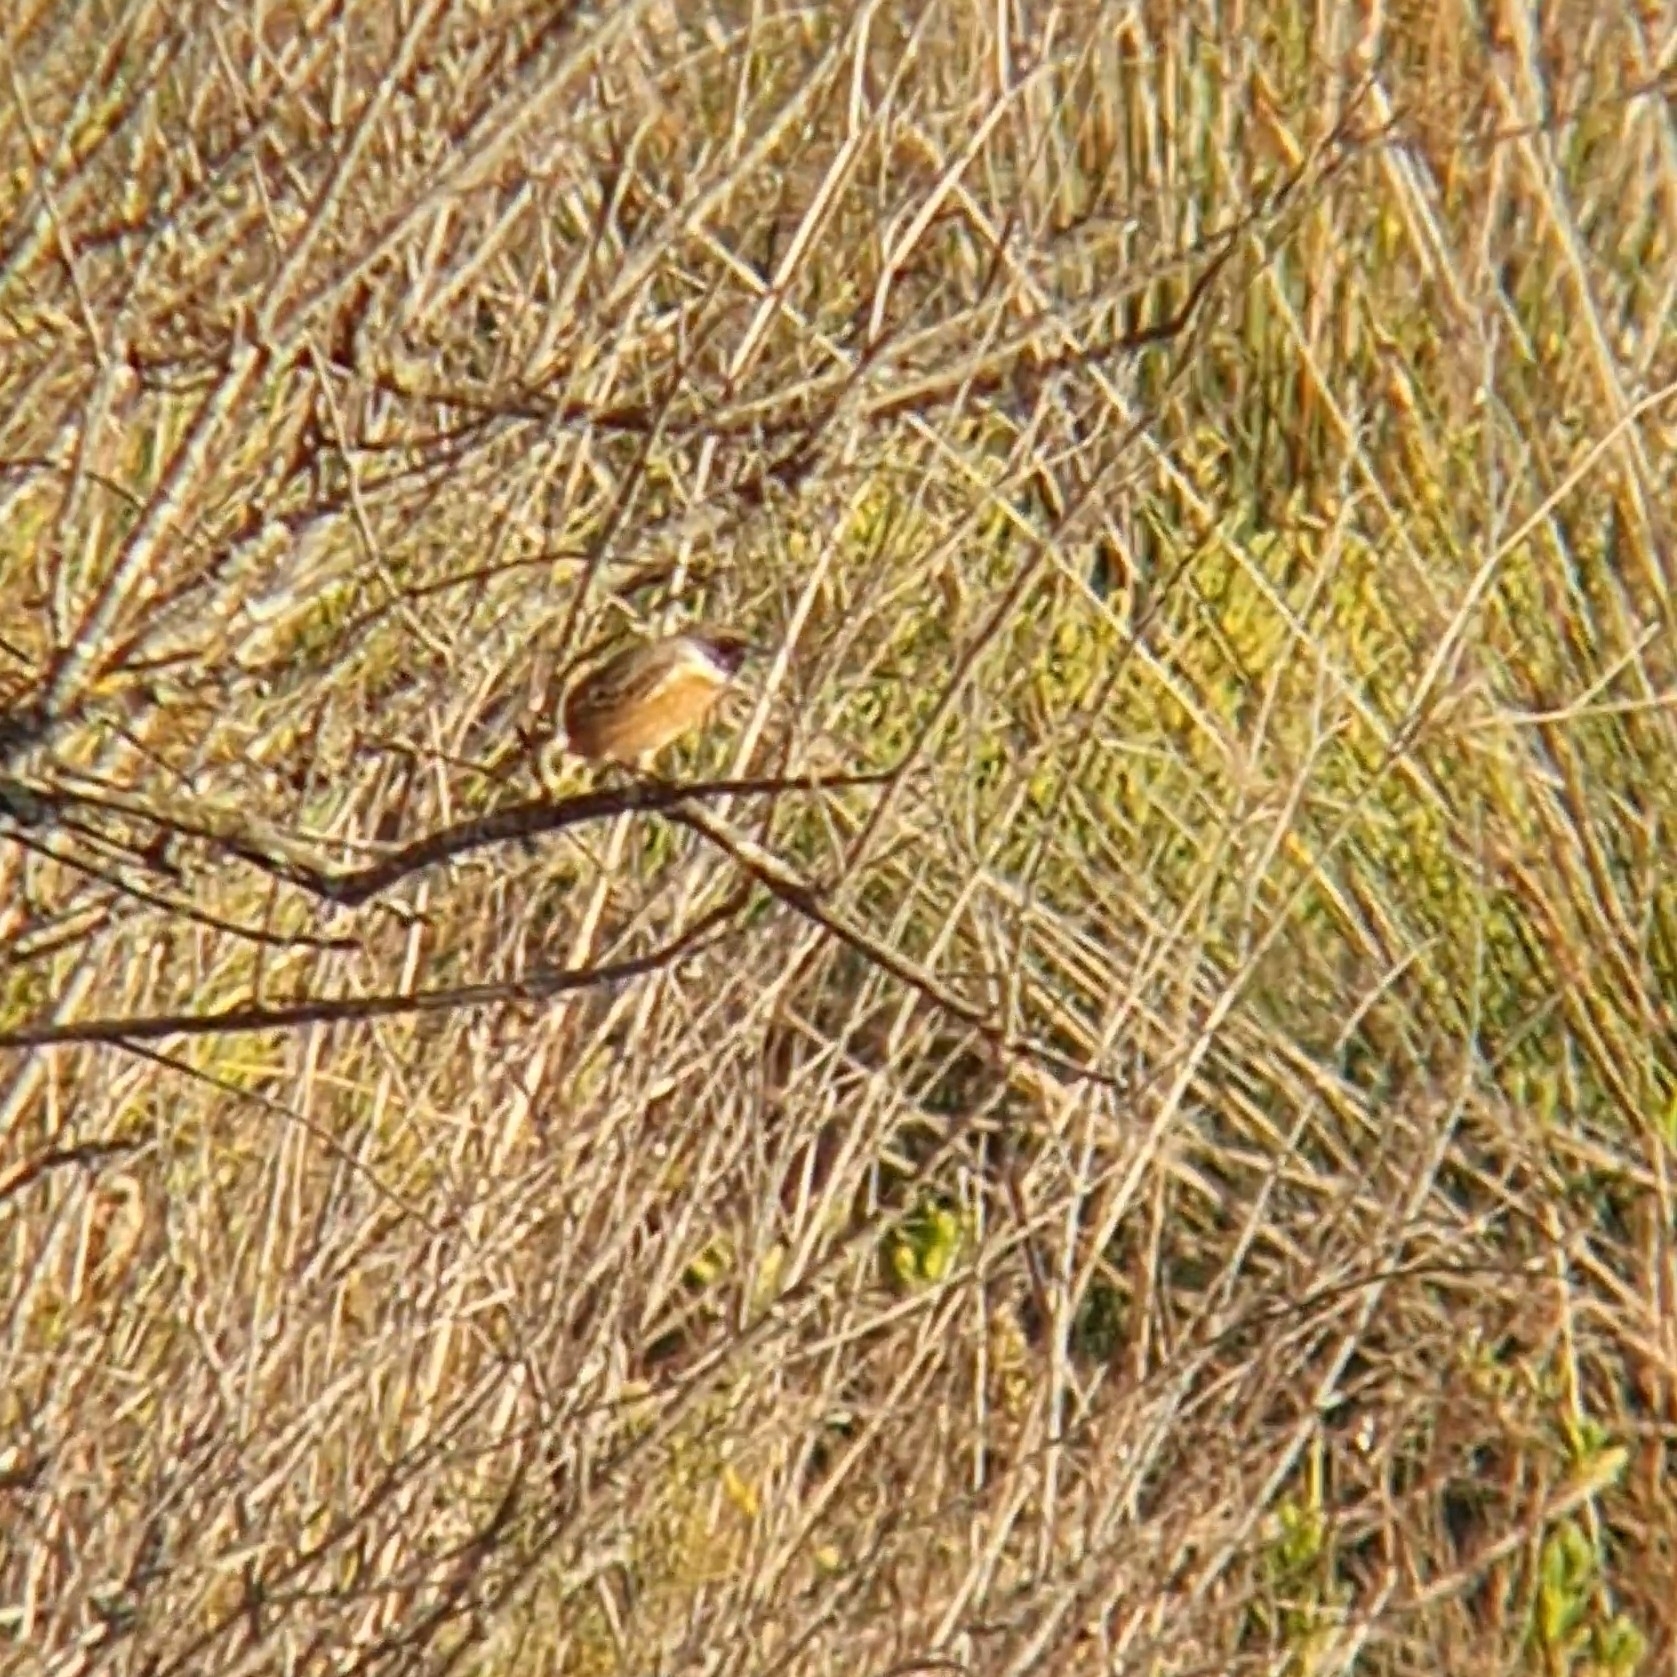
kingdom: Animalia
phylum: Chordata
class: Aves
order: Passeriformes
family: Muscicapidae
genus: Saxicola
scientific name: Saxicola rubicola
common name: European stonechat
